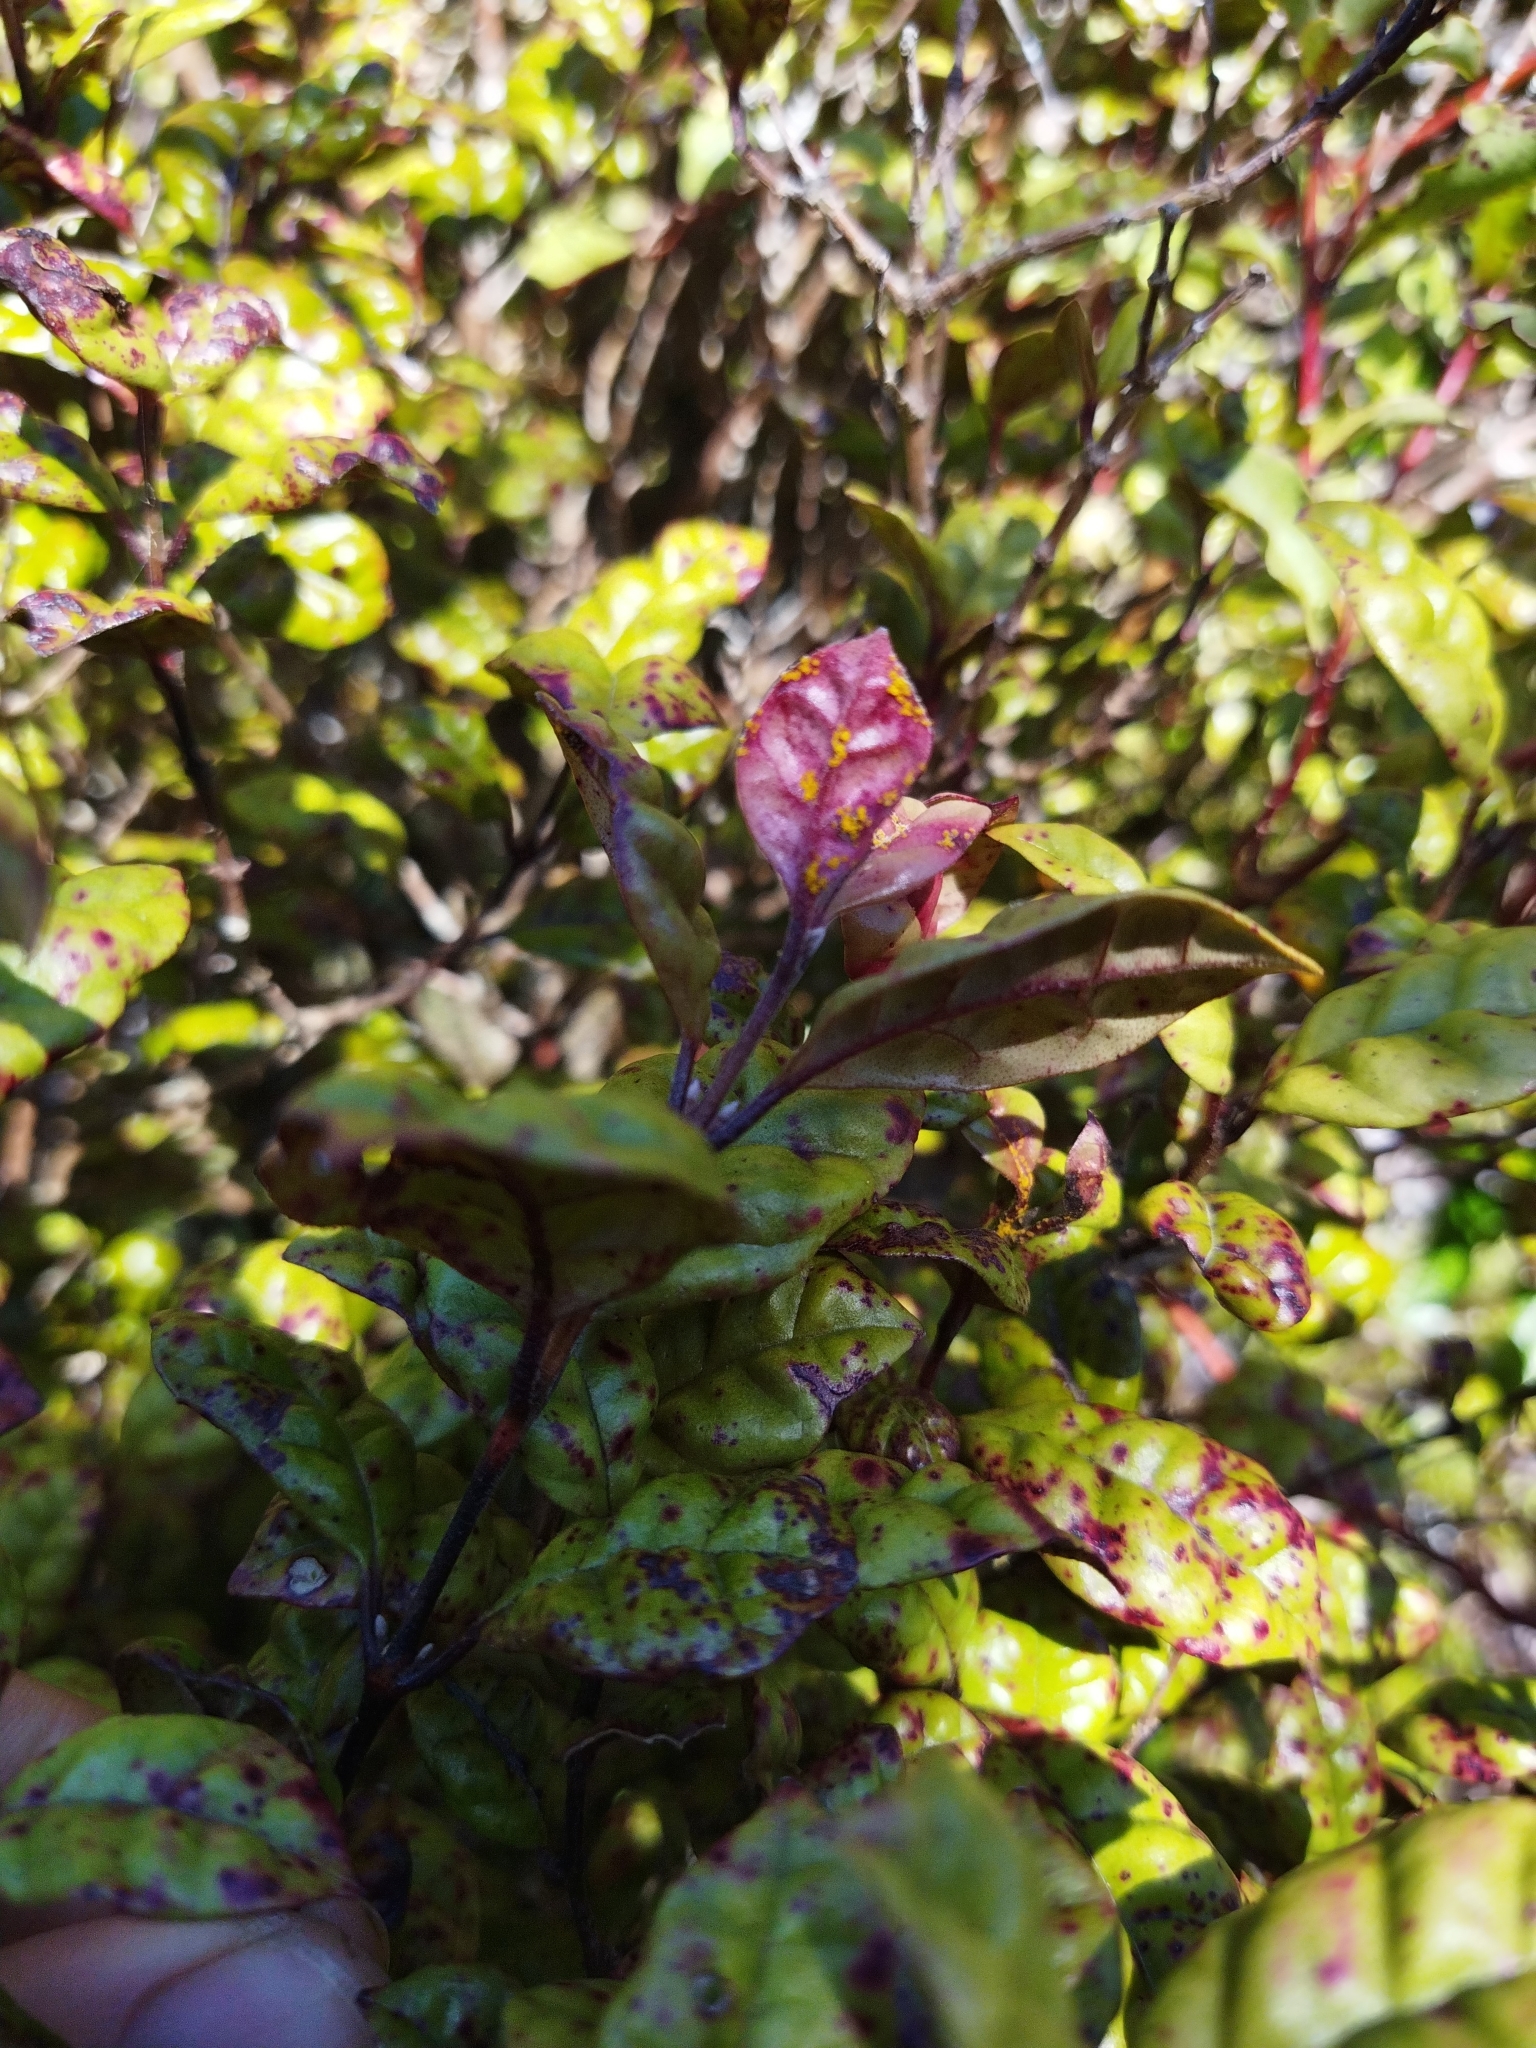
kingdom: Fungi
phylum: Basidiomycota
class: Pucciniomycetes
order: Pucciniales
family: Sphaerophragmiaceae
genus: Austropuccinia
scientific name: Austropuccinia psidii
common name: Myrtle rust
